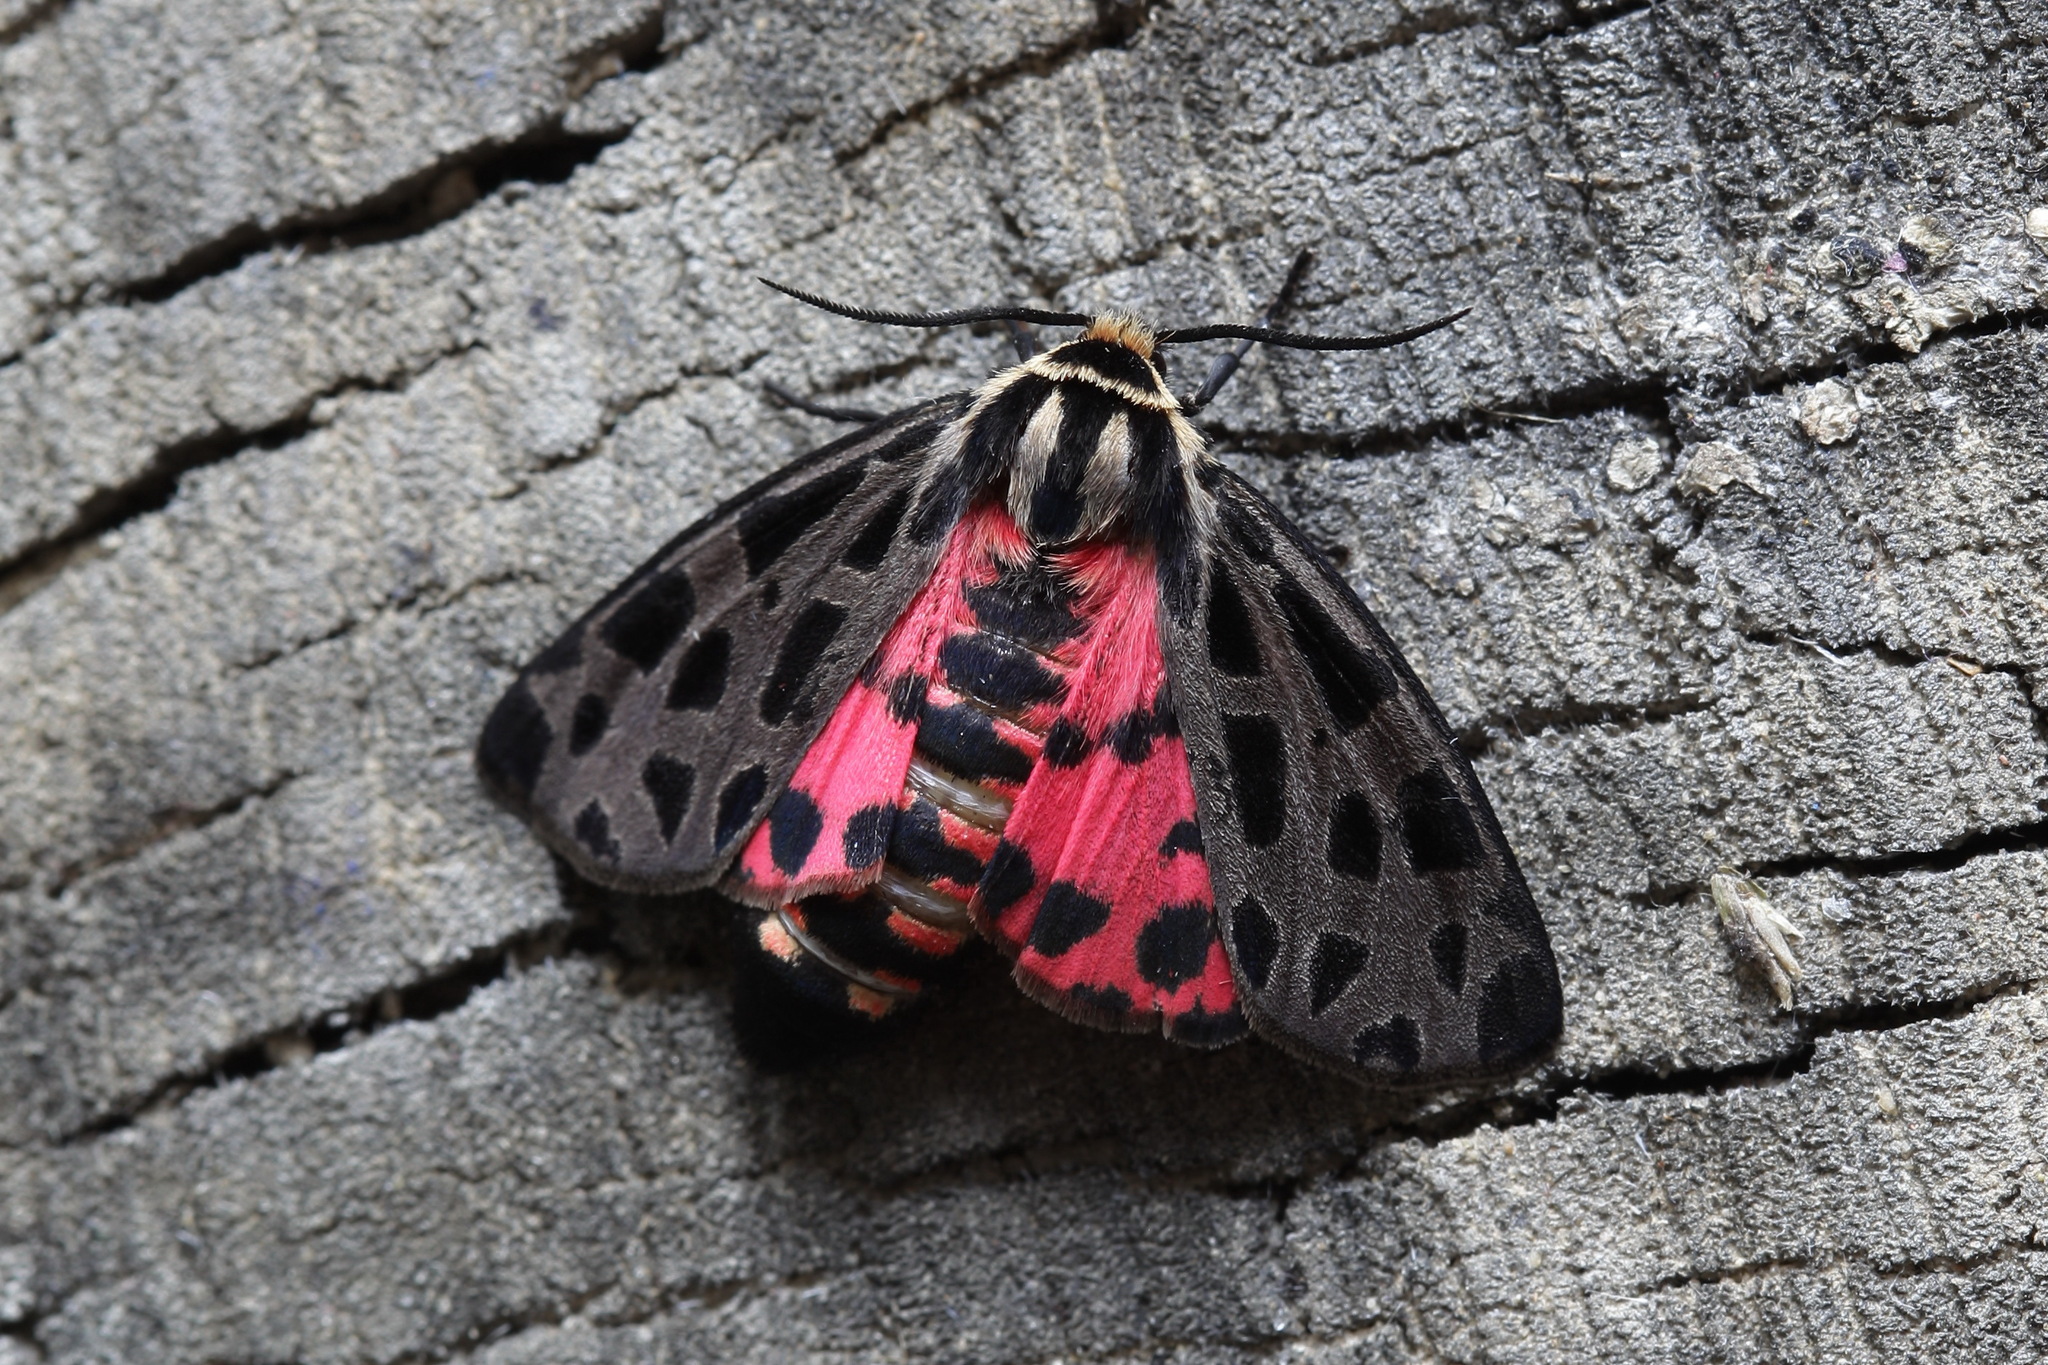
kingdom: Animalia
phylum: Arthropoda
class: Insecta
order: Lepidoptera
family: Erebidae
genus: Chelis
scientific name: Chelis caecilia
